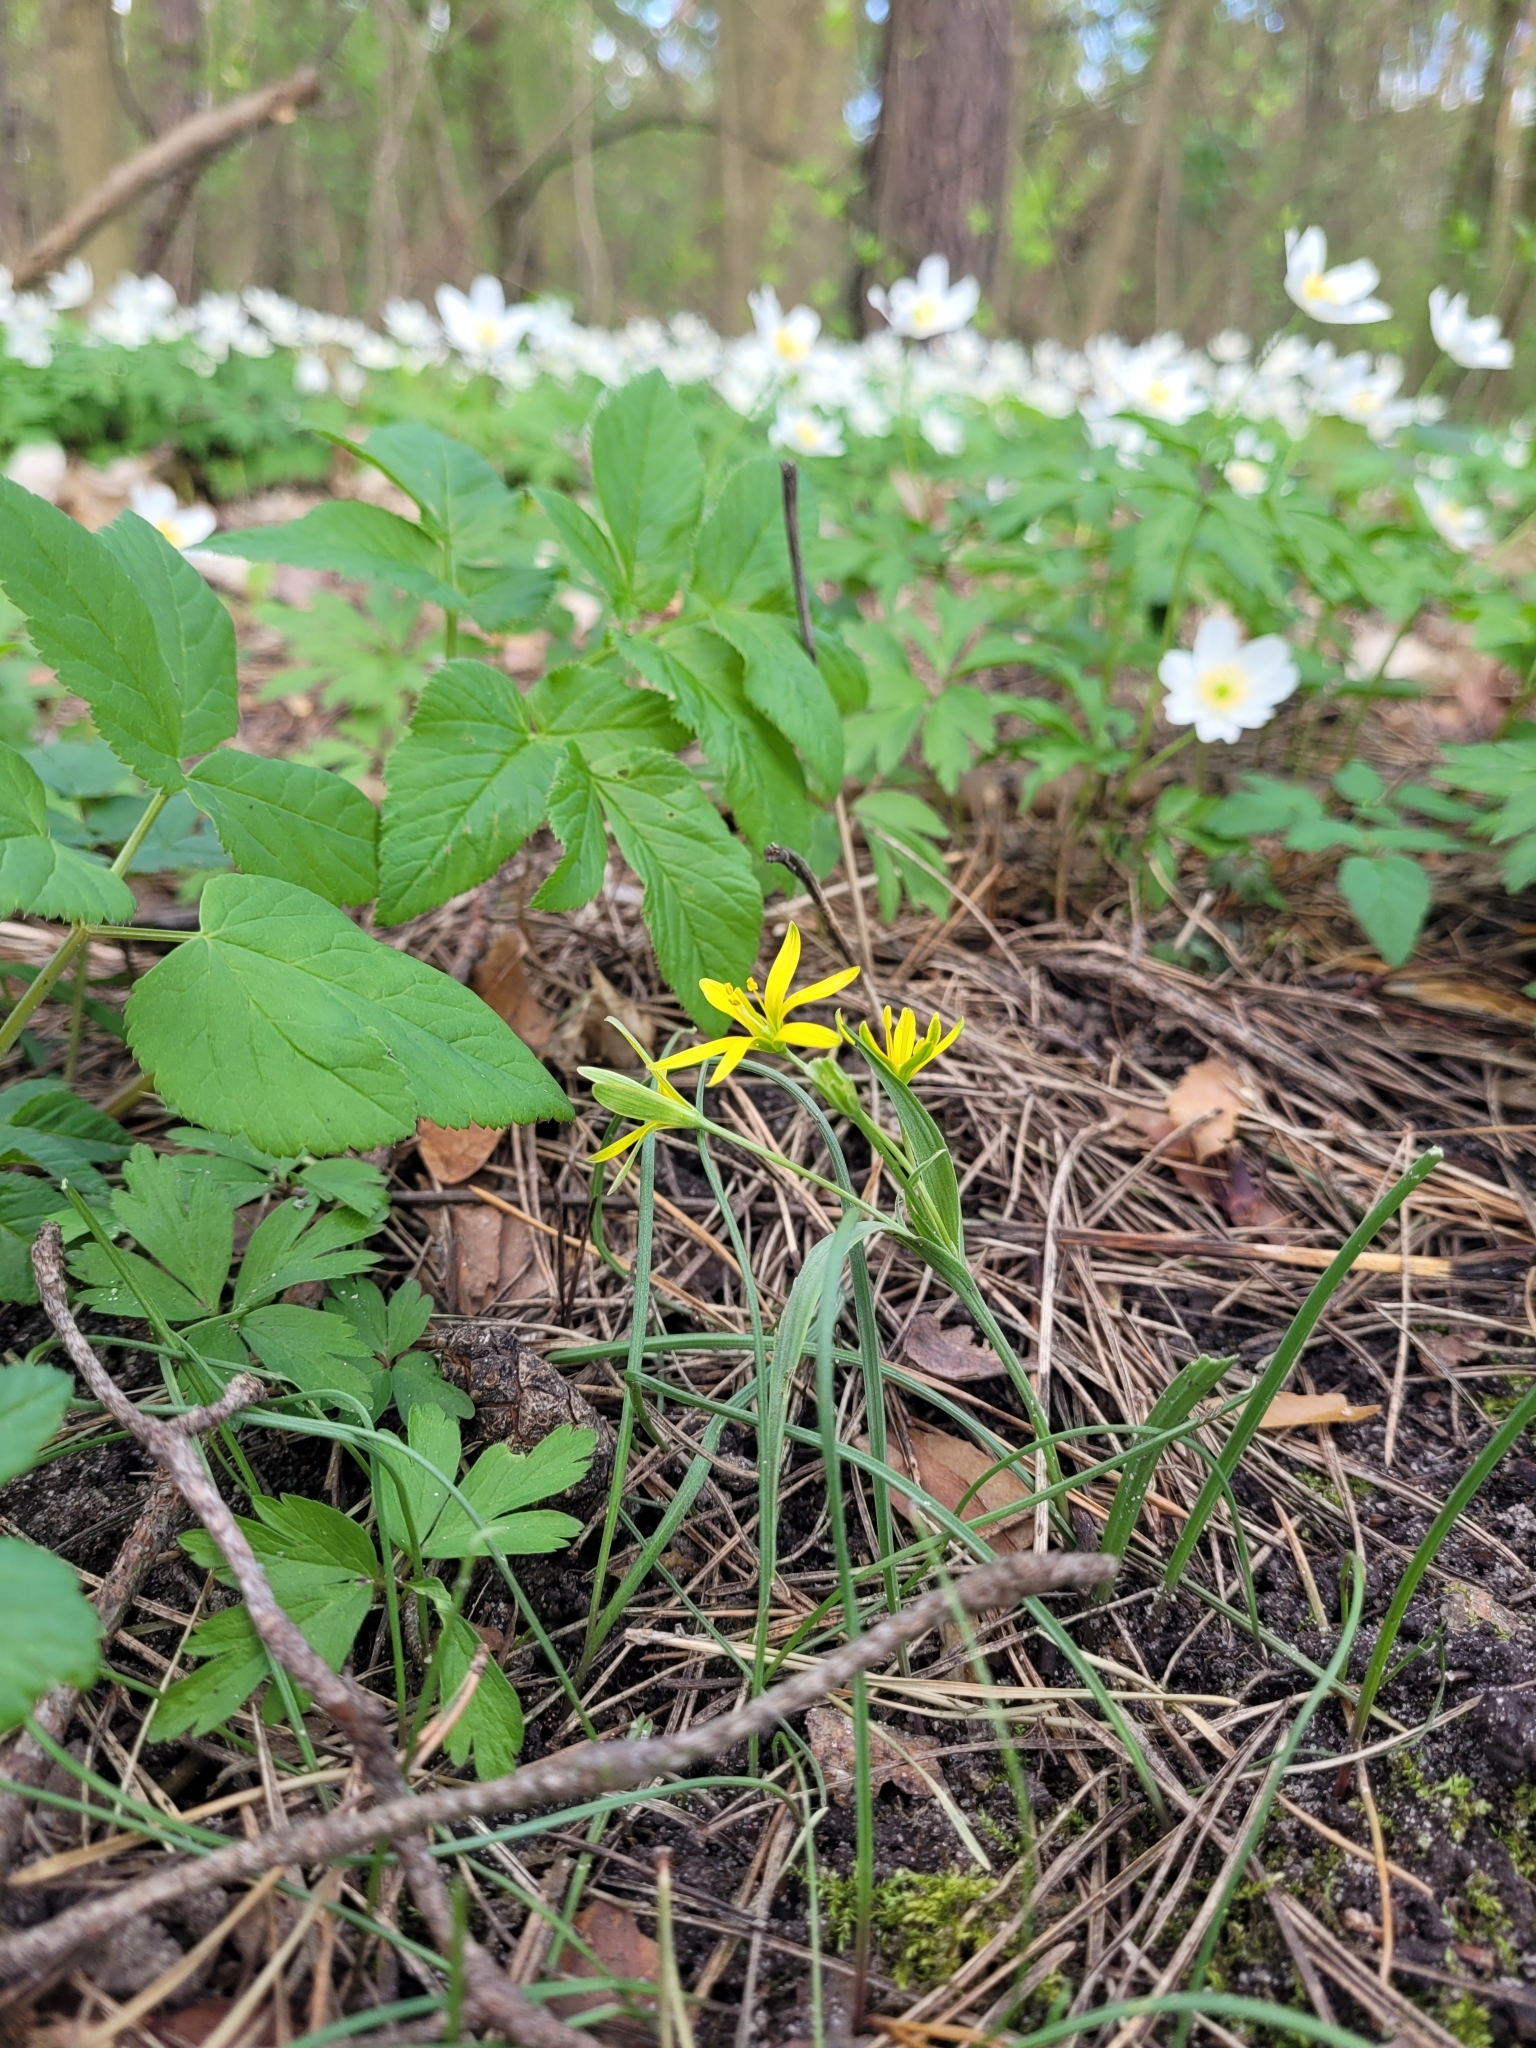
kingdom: Plantae
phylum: Tracheophyta
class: Liliopsida
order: Liliales
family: Liliaceae
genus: Gagea
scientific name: Gagea lutea
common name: Yellow star-of-bethlehem
